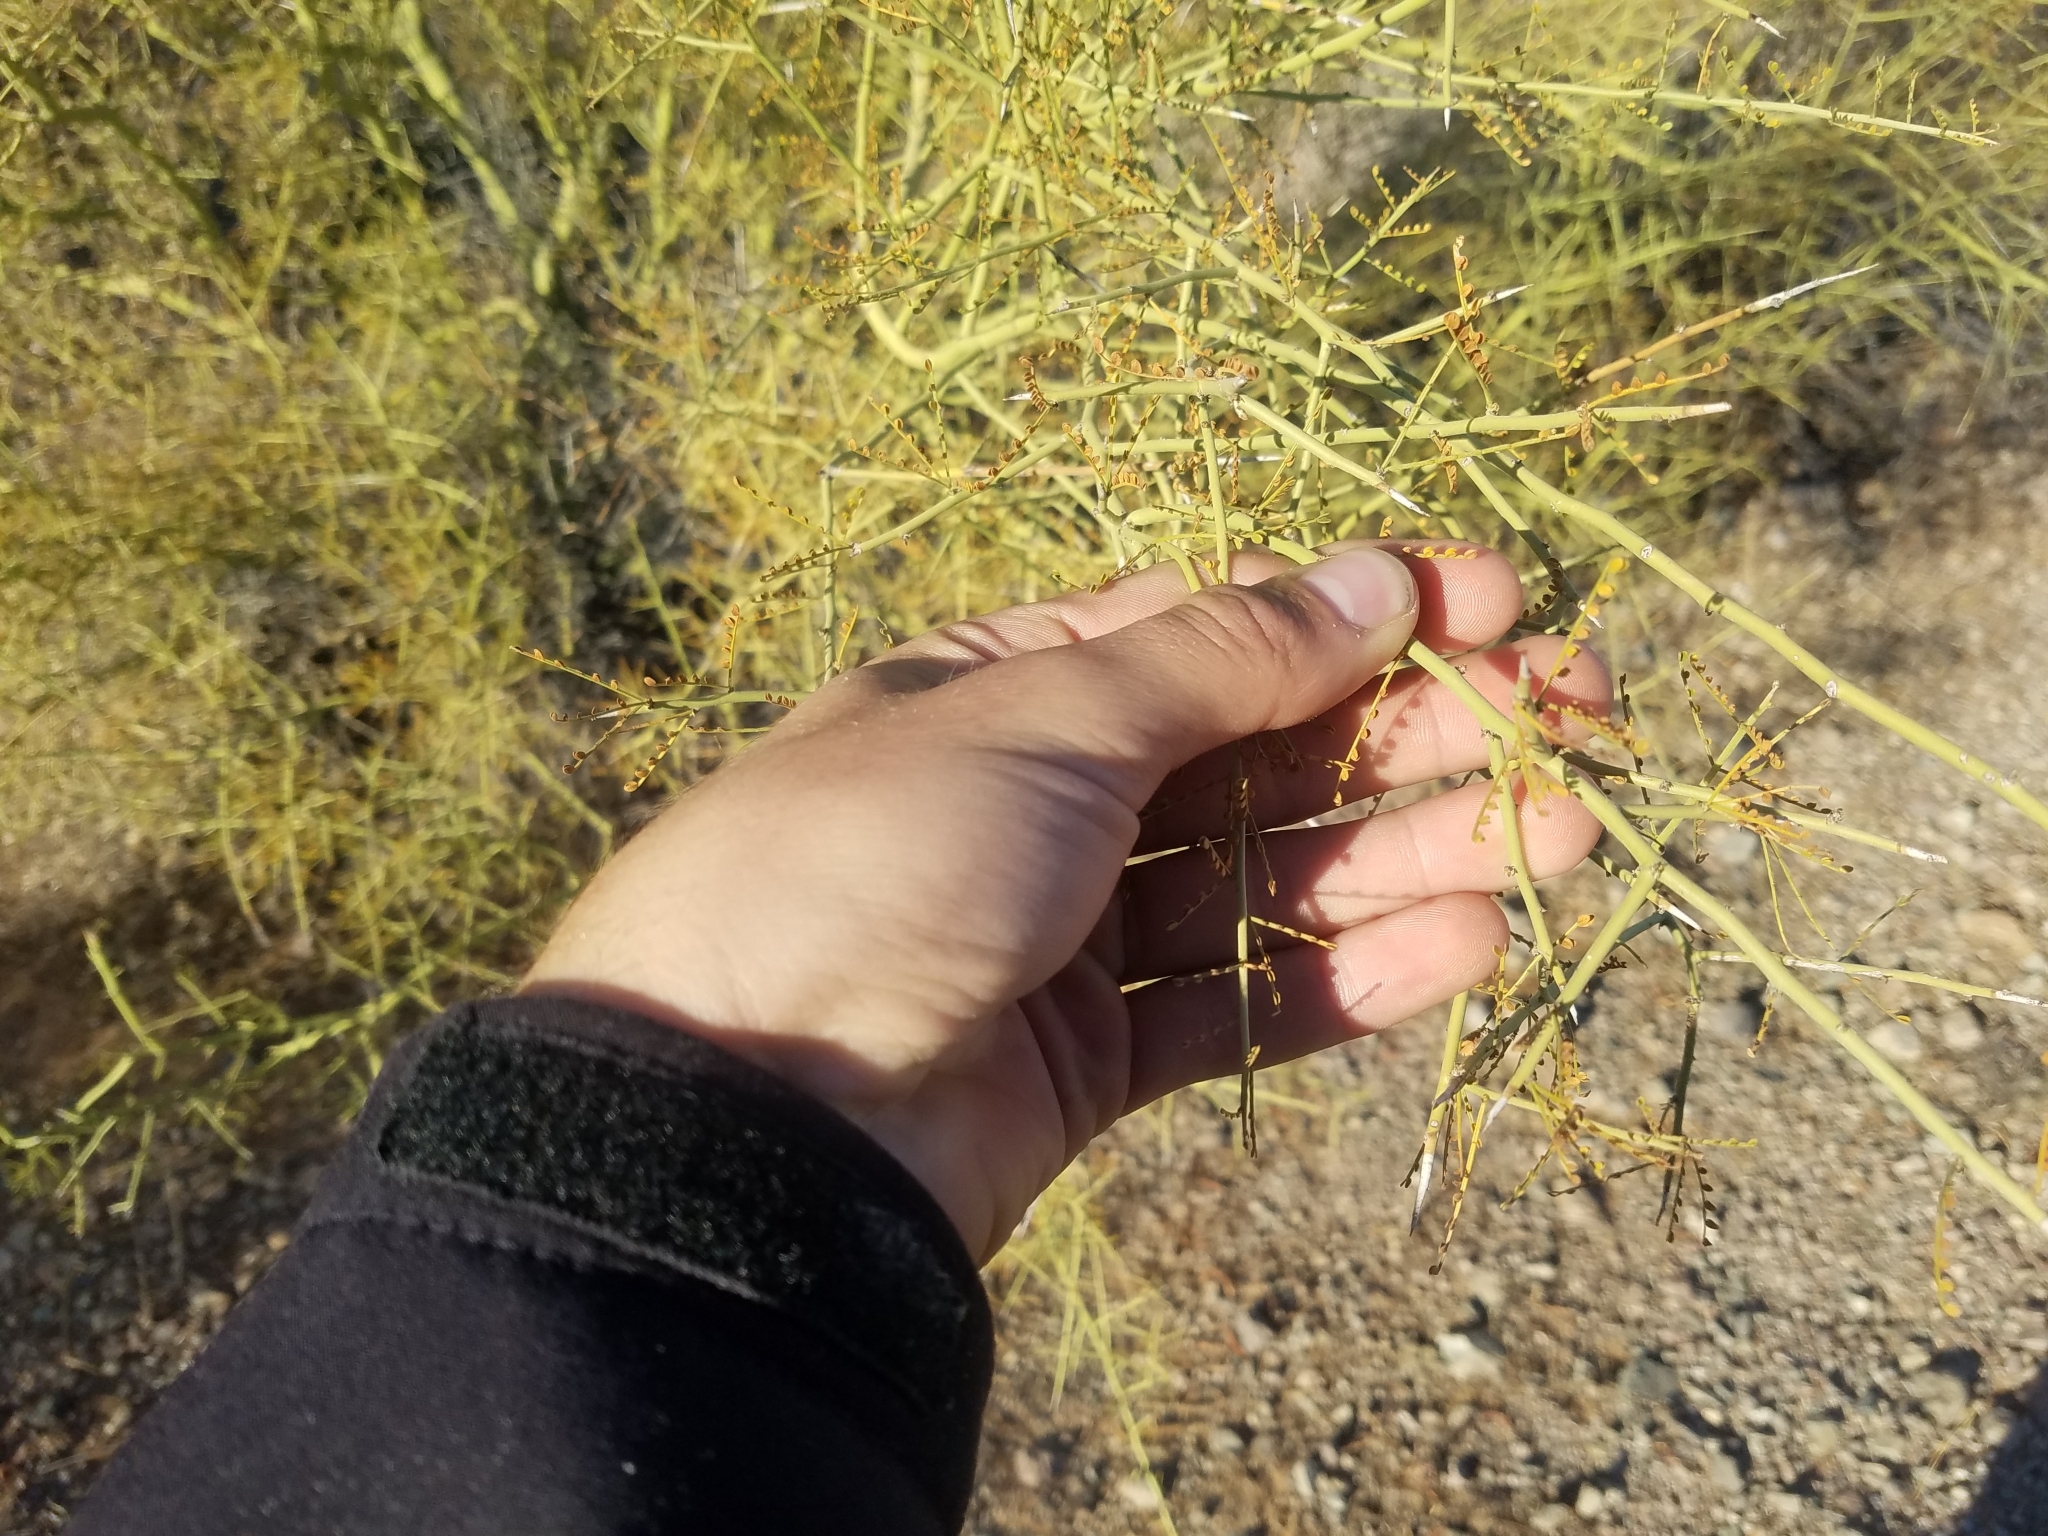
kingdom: Plantae
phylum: Tracheophyta
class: Magnoliopsida
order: Fabales
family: Fabaceae
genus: Parkinsonia
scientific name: Parkinsonia microphylla
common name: Yellow paloverde
